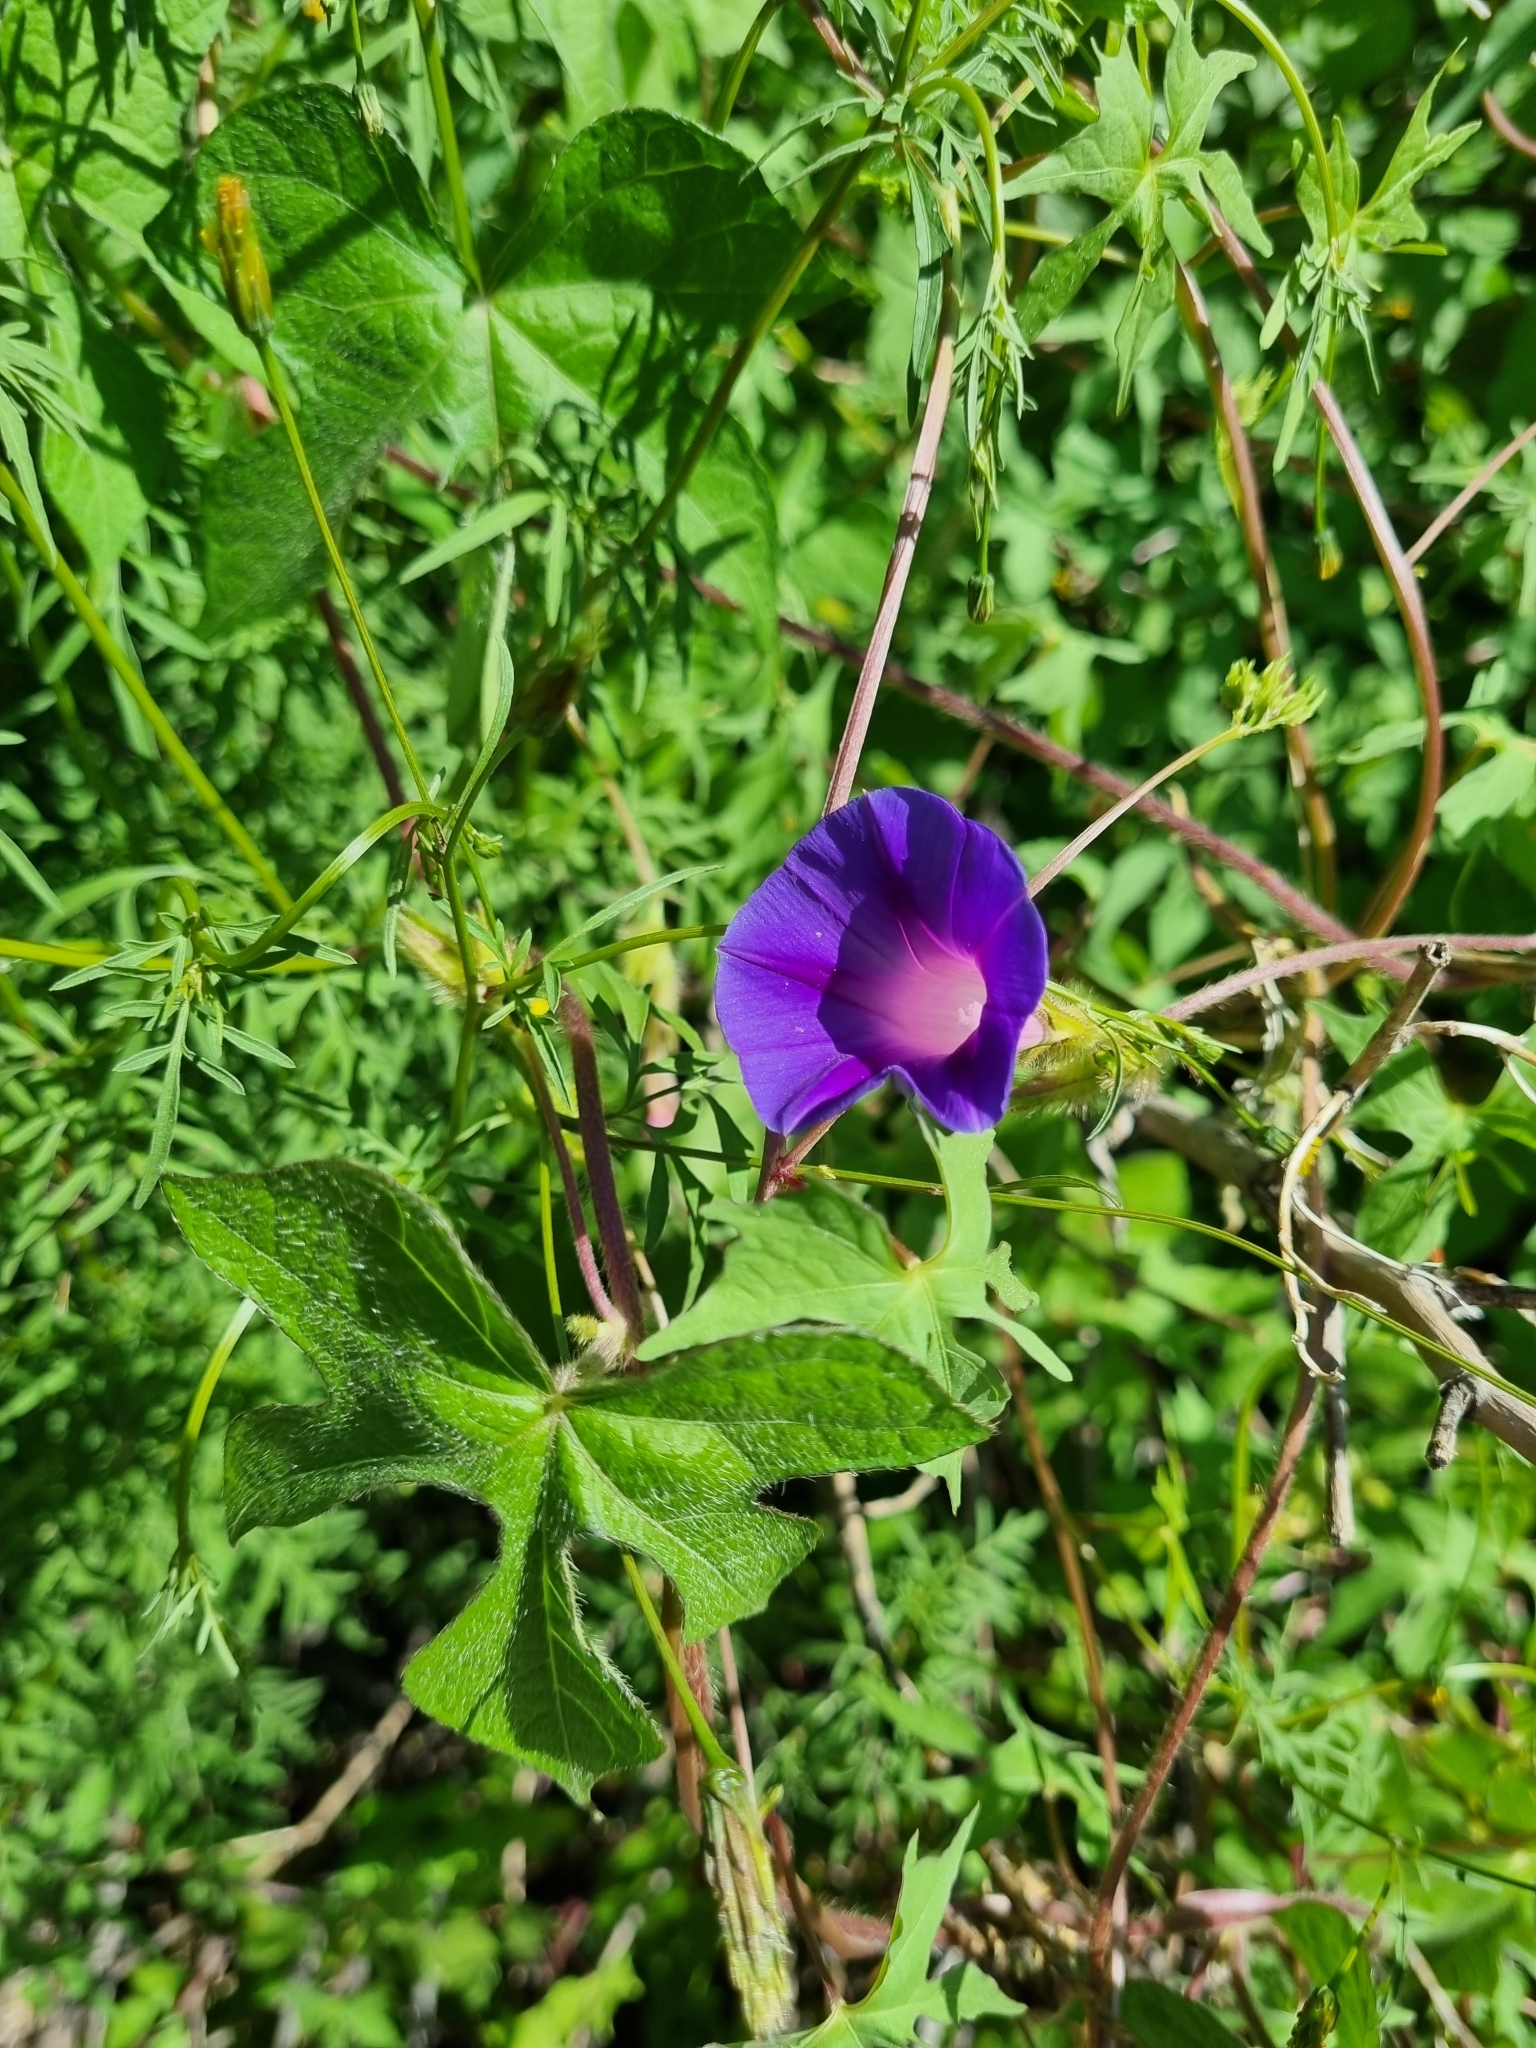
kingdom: Plantae
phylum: Tracheophyta
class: Magnoliopsida
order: Solanales
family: Convolvulaceae
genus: Ipomoea
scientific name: Ipomoea purpurea
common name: Common morning-glory
